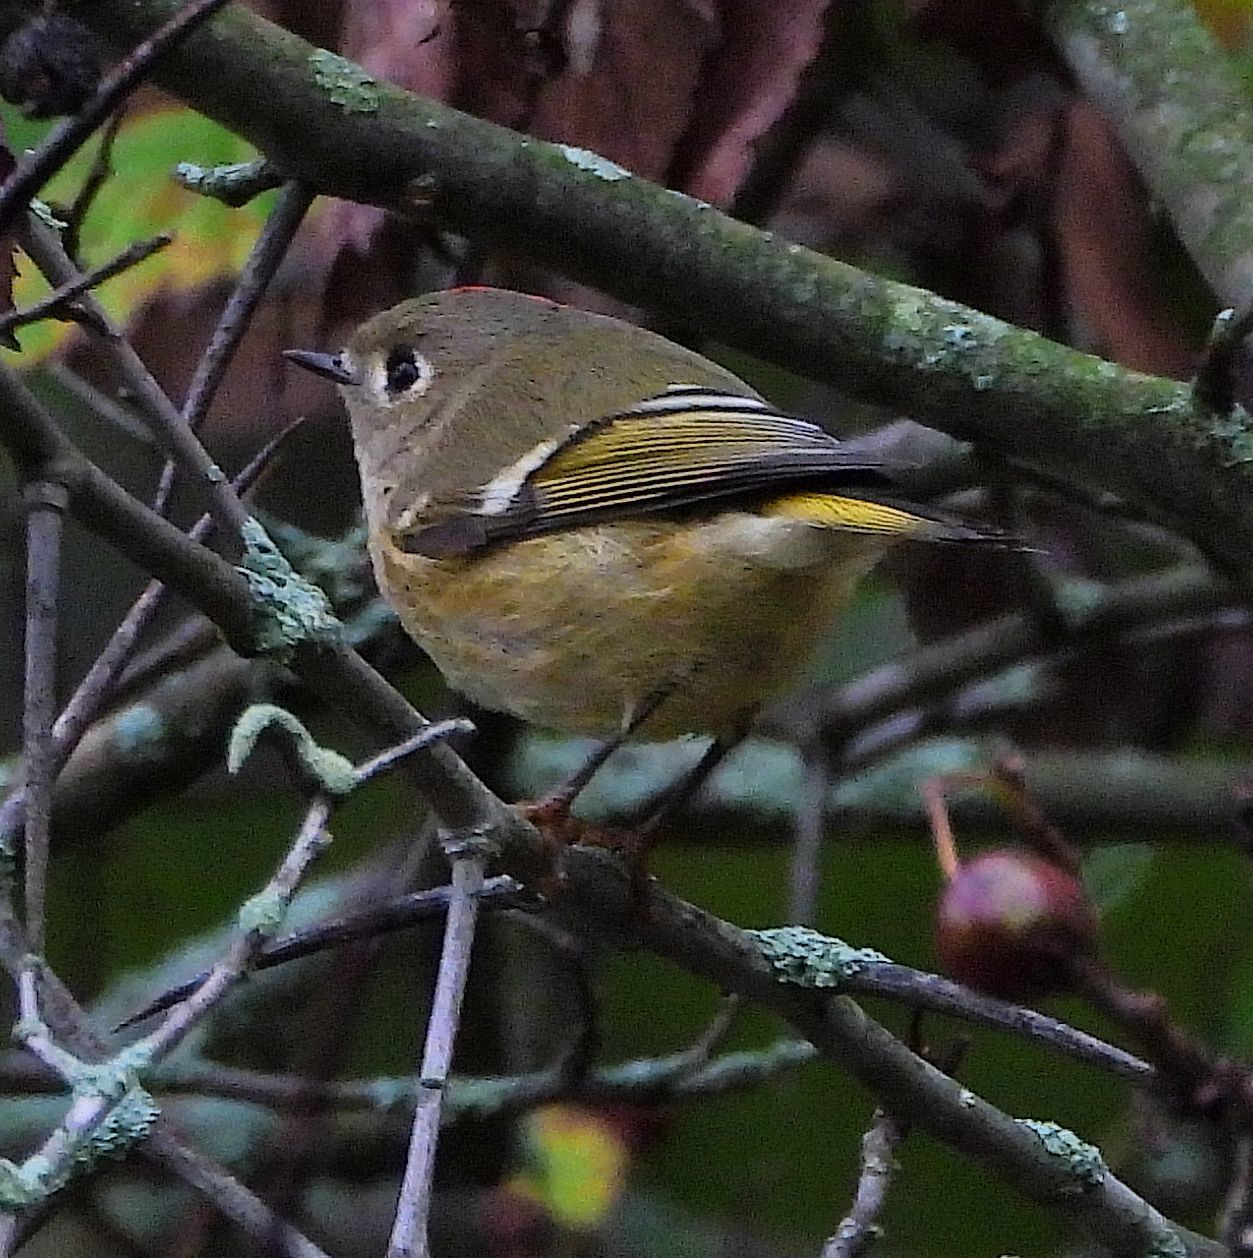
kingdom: Animalia
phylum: Chordata
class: Aves
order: Passeriformes
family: Regulidae
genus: Regulus
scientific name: Regulus calendula
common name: Ruby-crowned kinglet
